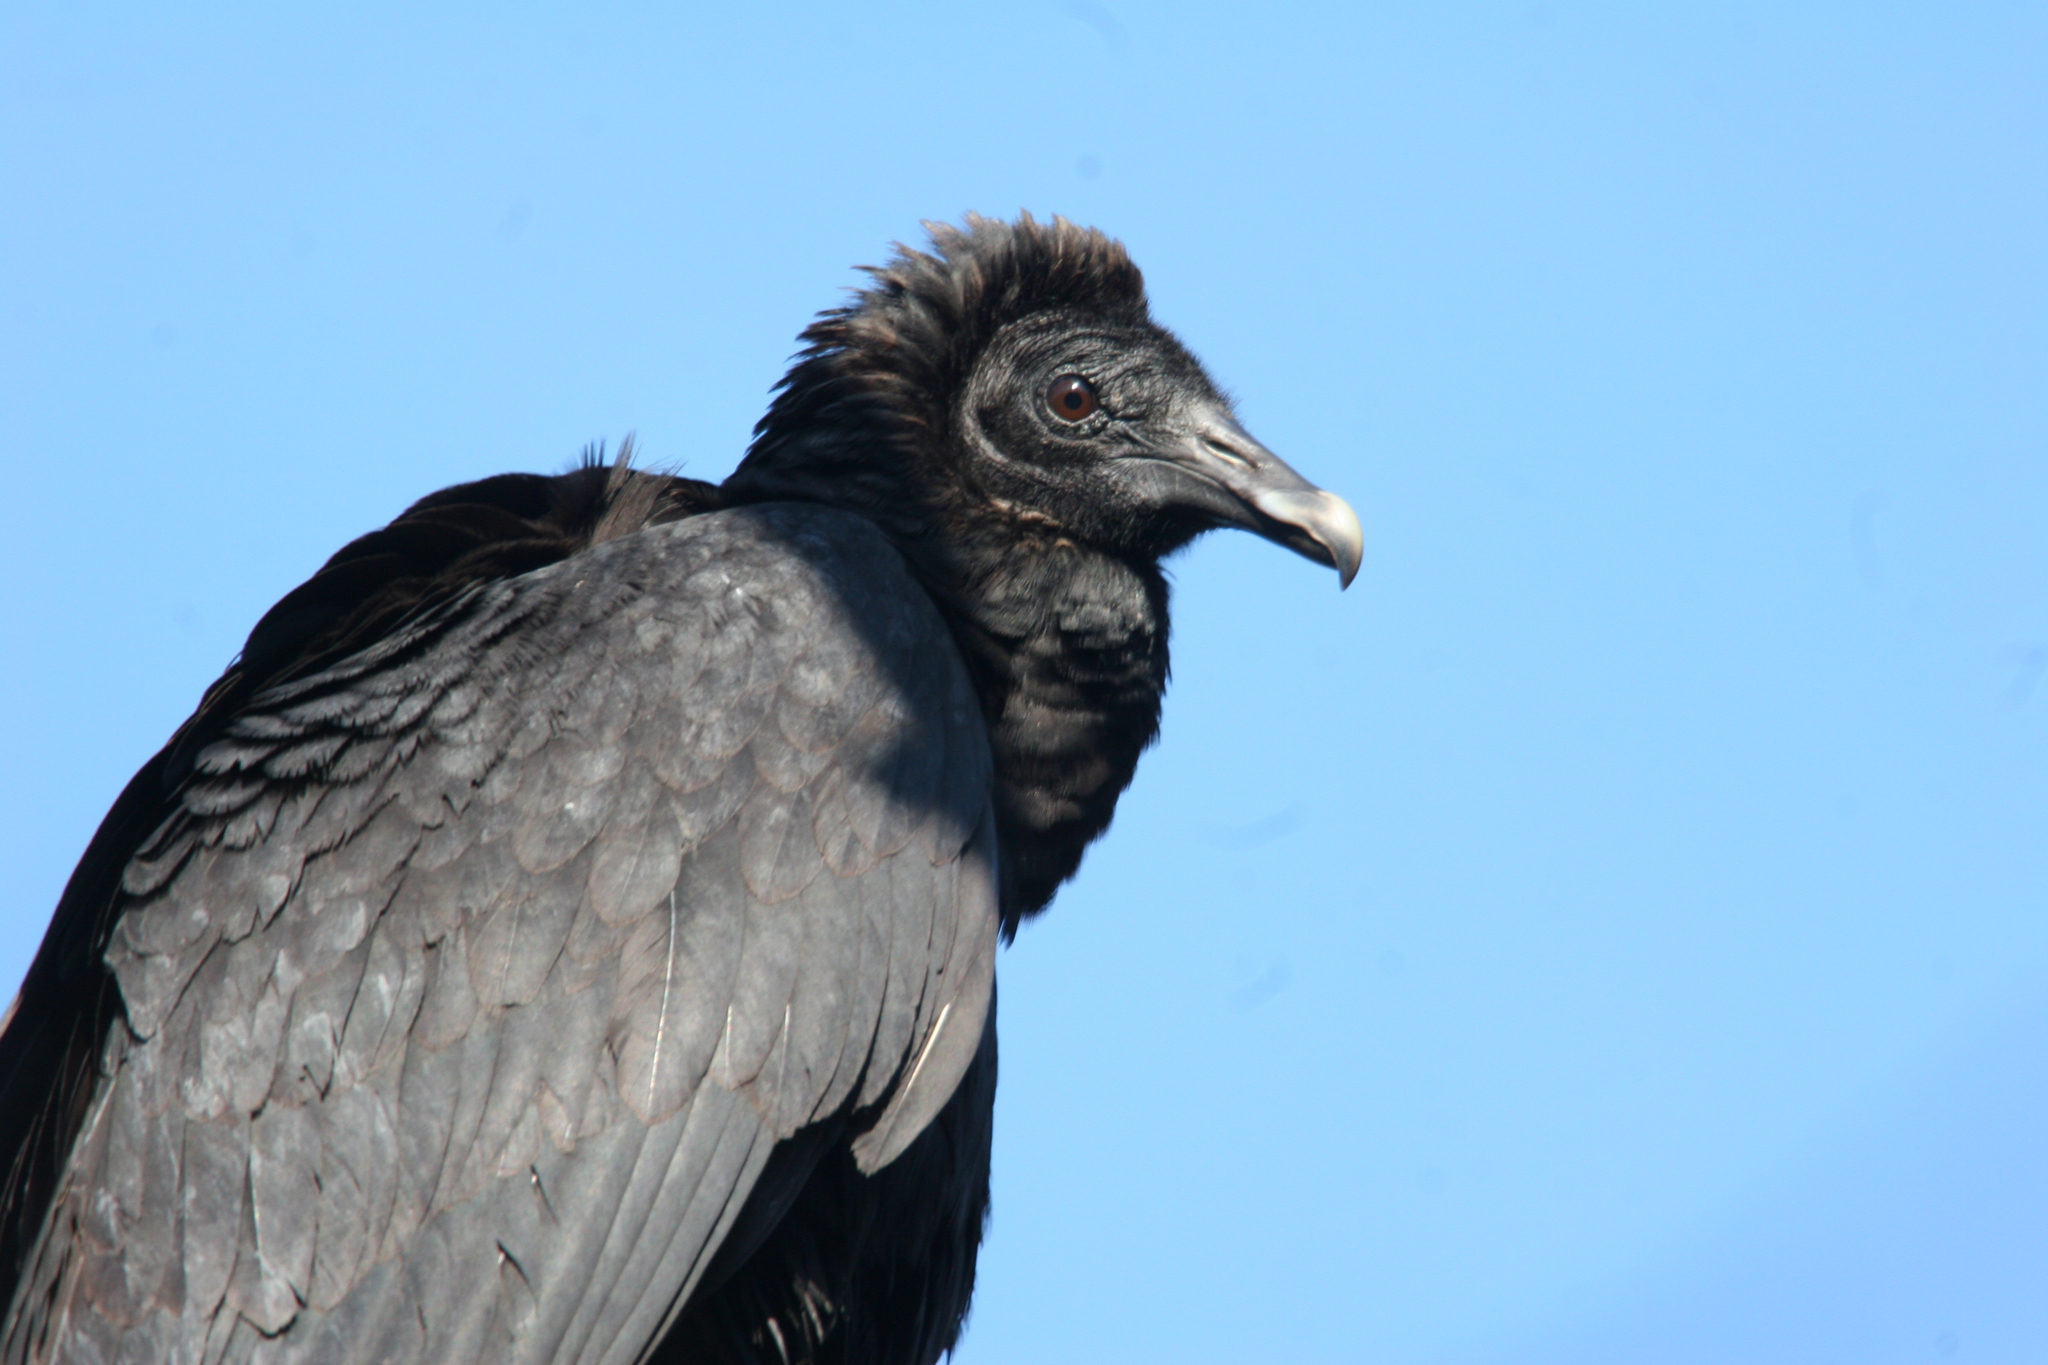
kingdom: Animalia
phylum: Chordata
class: Aves
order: Accipitriformes
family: Cathartidae
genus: Coragyps
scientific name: Coragyps atratus
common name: Black vulture
